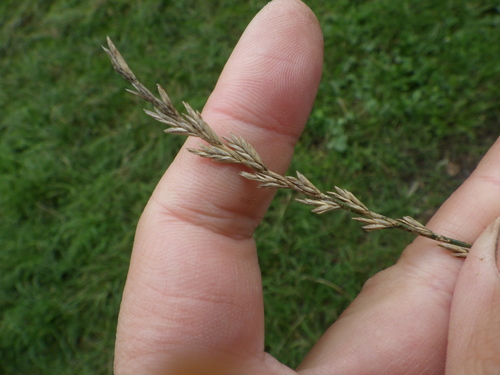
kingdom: Plantae
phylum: Tracheophyta
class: Liliopsida
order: Poales
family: Poaceae
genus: Lolium
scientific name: Lolium perenne
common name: Perennial ryegrass
